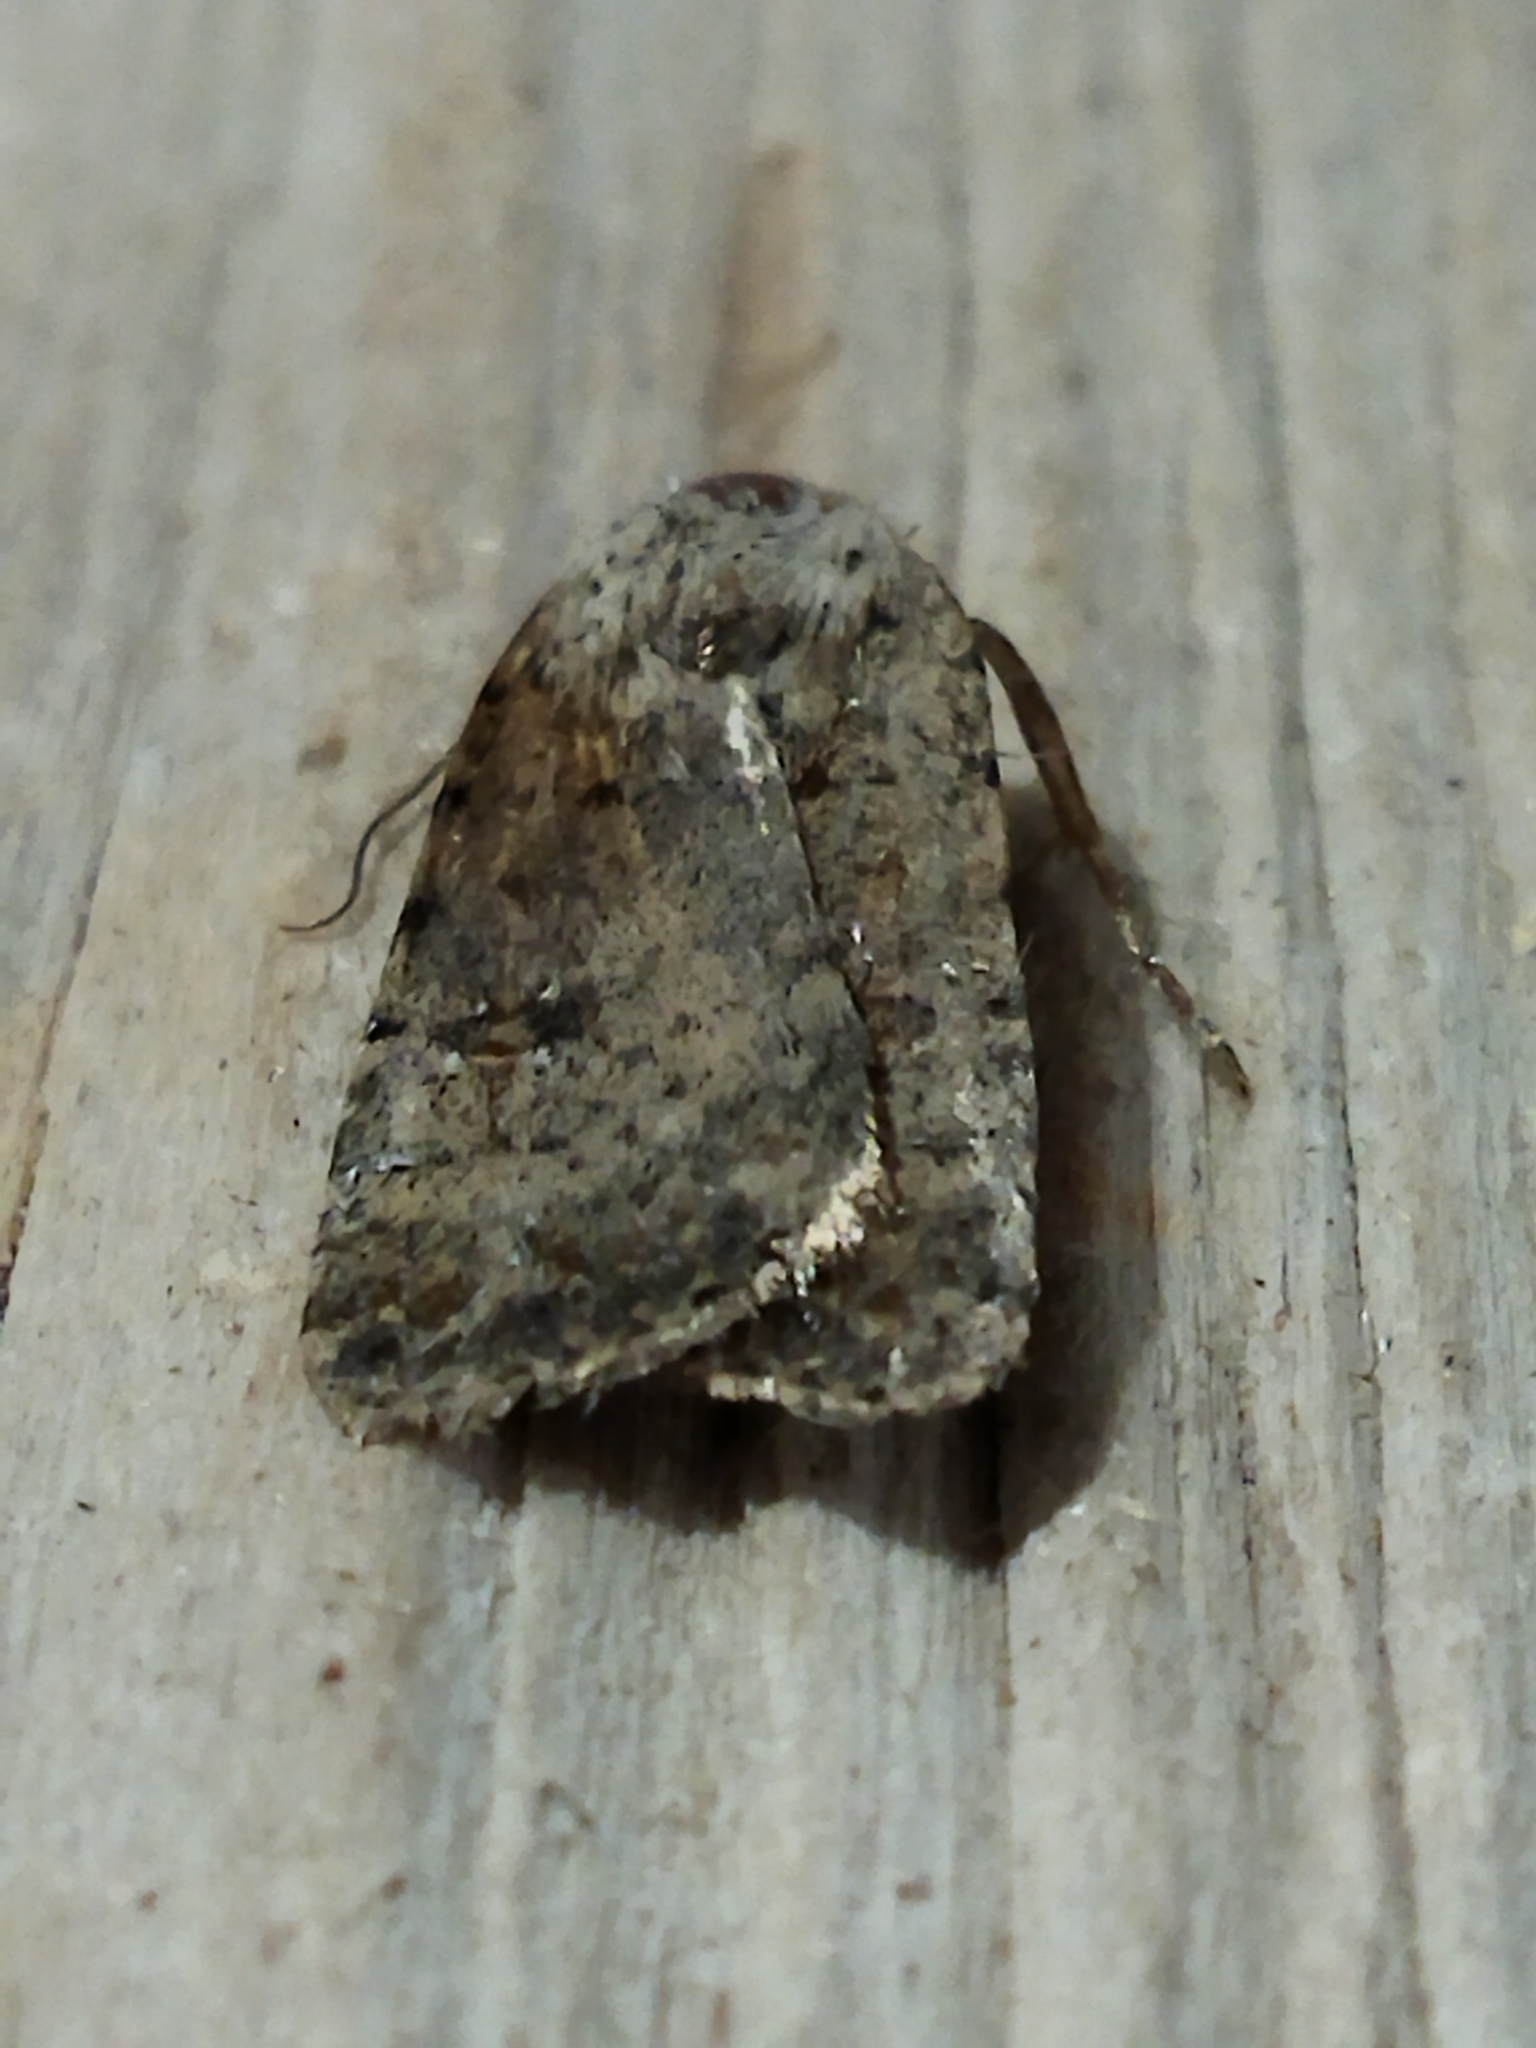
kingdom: Animalia
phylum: Arthropoda
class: Insecta
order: Lepidoptera
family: Noctuidae
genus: Caradrina
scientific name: Caradrina clavipalpis
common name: Pale mottled willow
